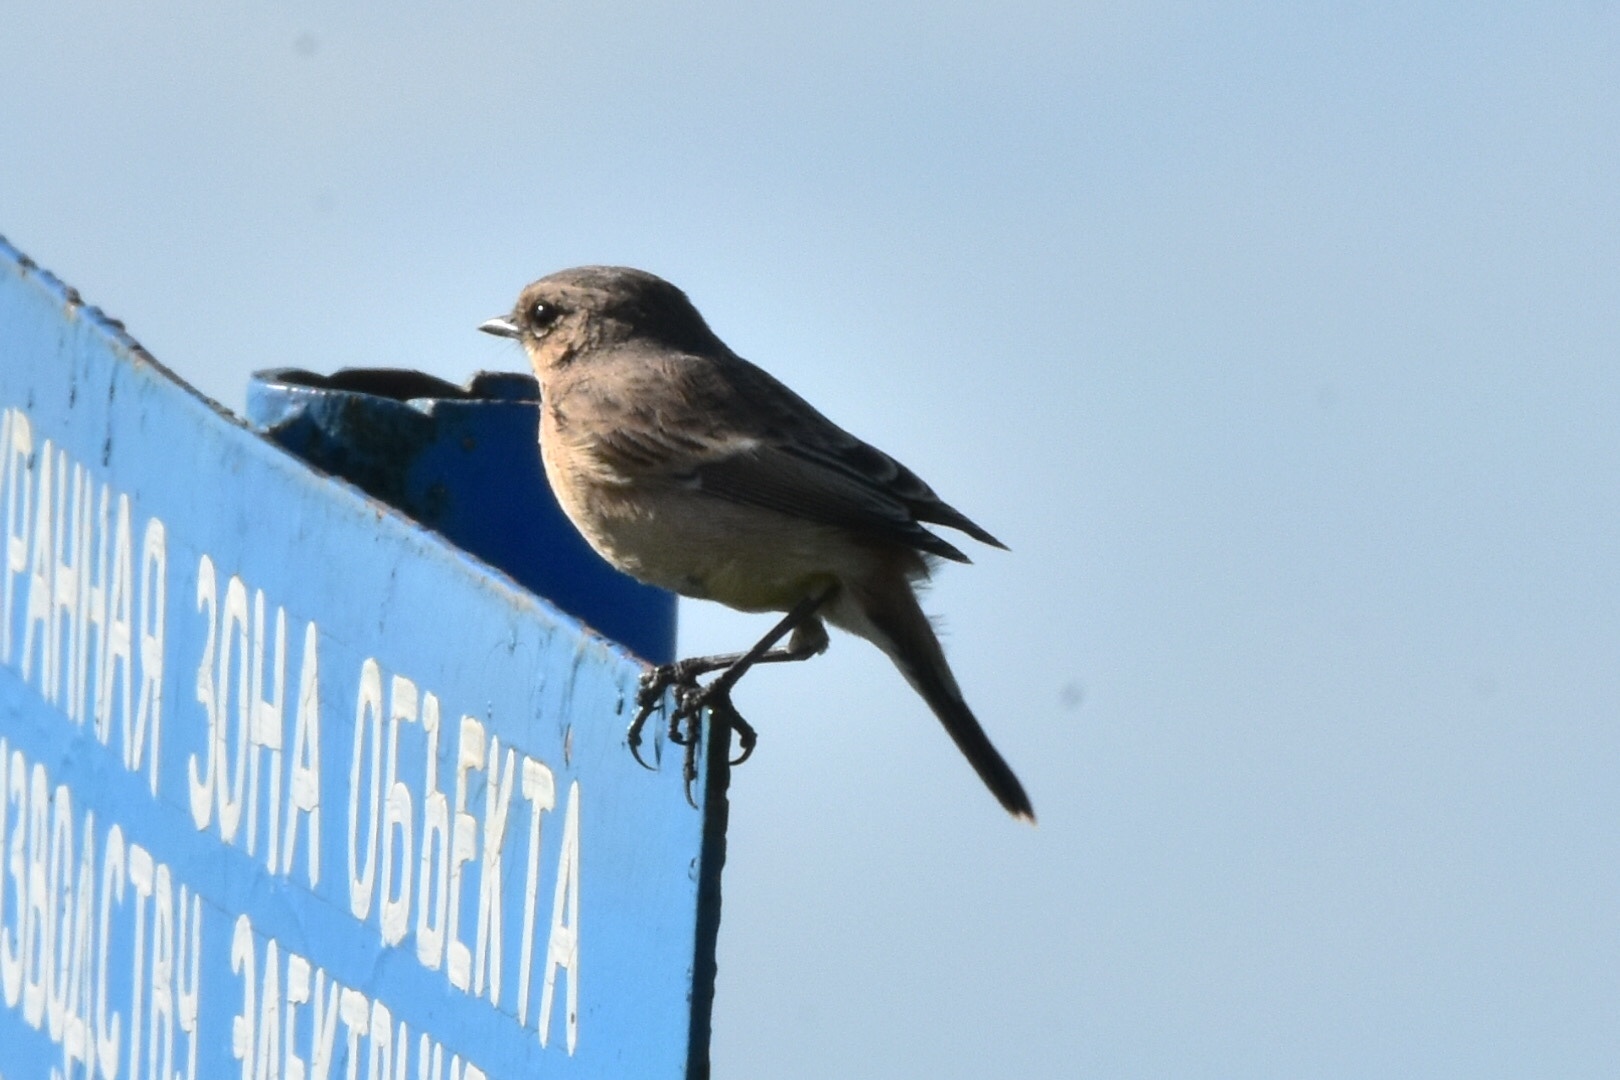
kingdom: Animalia
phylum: Chordata
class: Aves
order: Passeriformes
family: Muscicapidae
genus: Oenanthe
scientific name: Oenanthe oenanthe
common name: Northern wheatear
